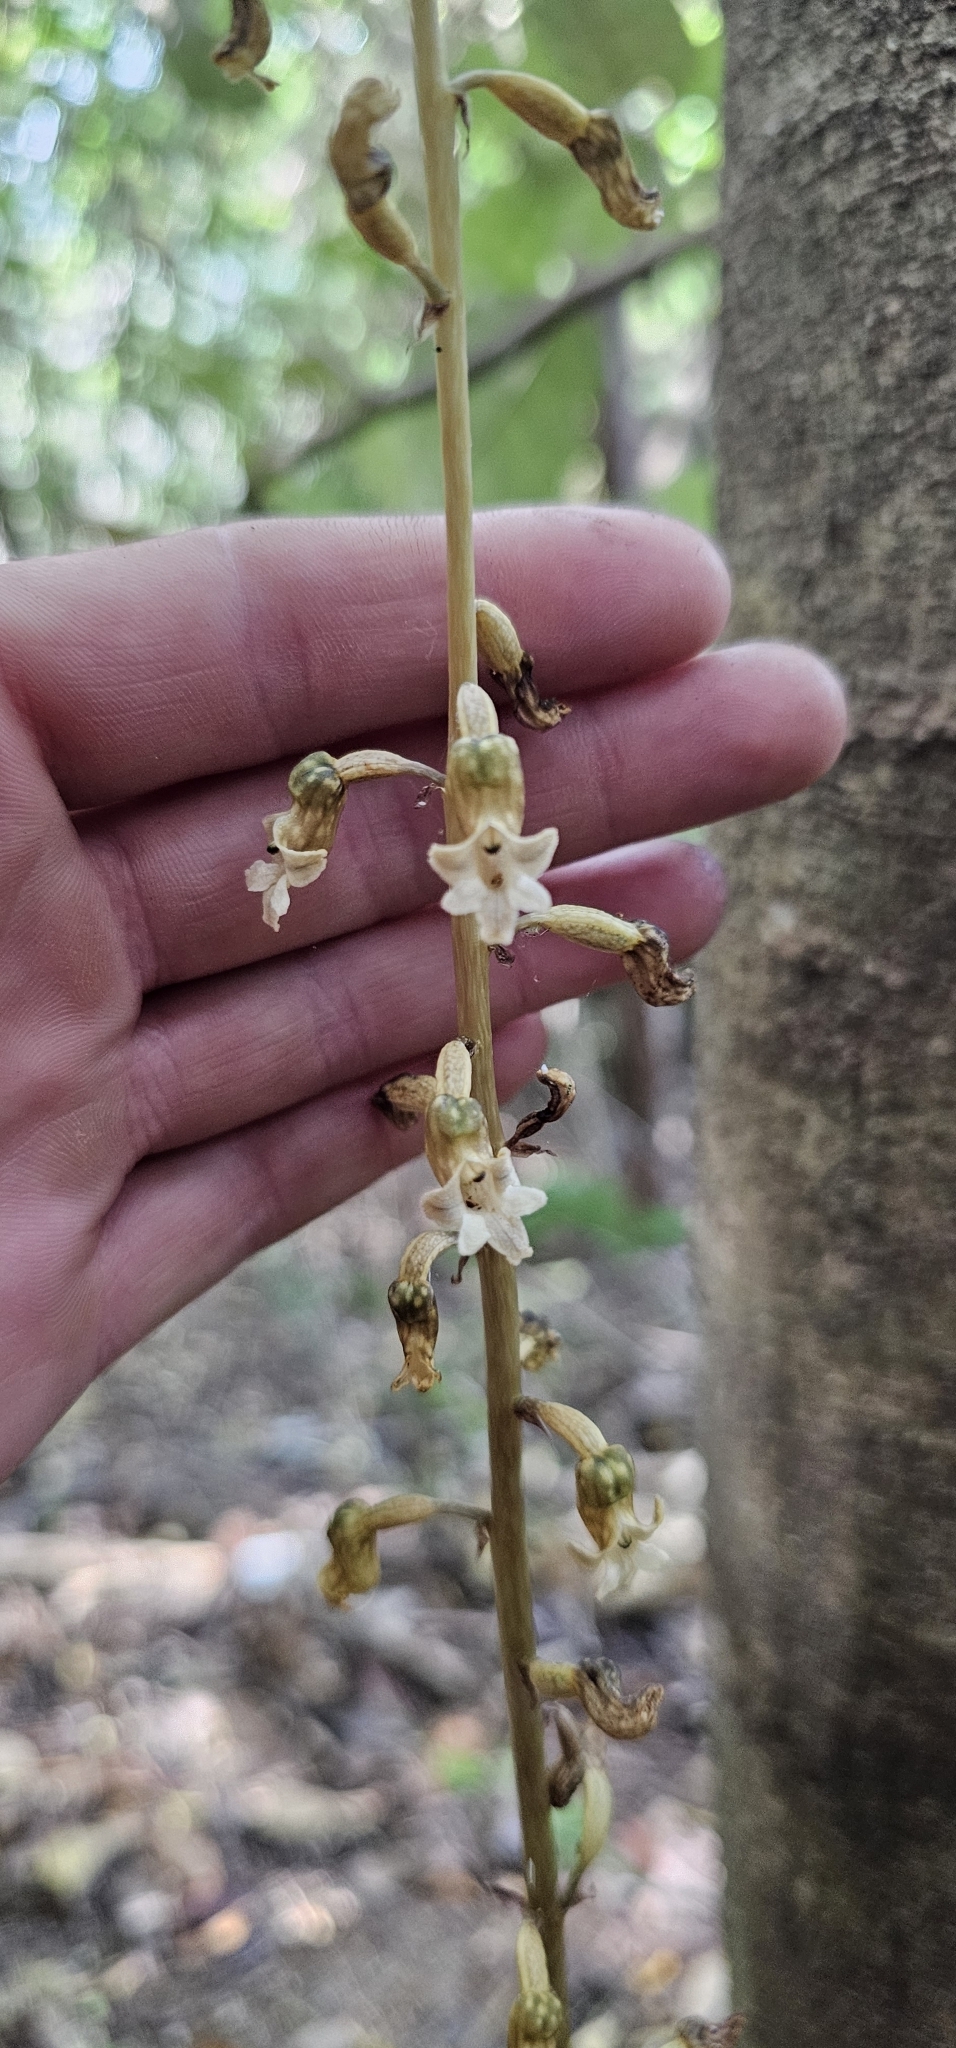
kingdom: Plantae
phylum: Tracheophyta
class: Liliopsida
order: Asparagales
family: Orchidaceae
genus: Gastrodia
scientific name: Gastrodia cunninghamii
